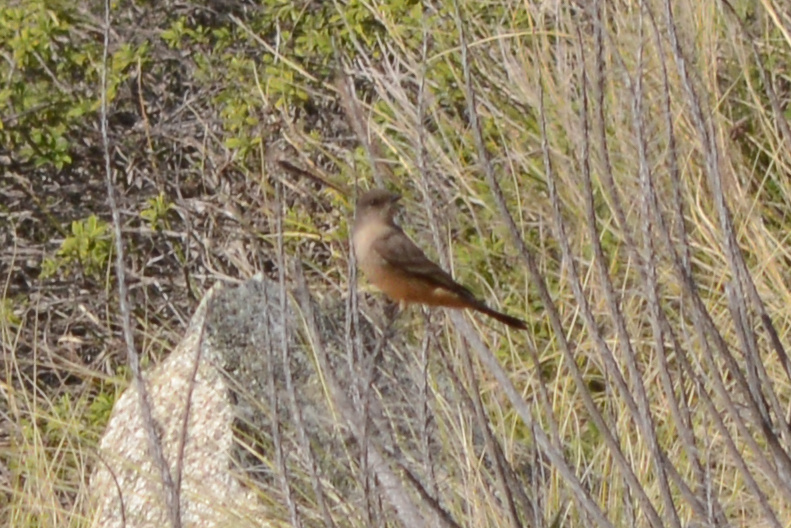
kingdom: Animalia
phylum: Chordata
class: Aves
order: Passeriformes
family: Tyrannidae
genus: Sayornis
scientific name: Sayornis saya
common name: Say's phoebe
